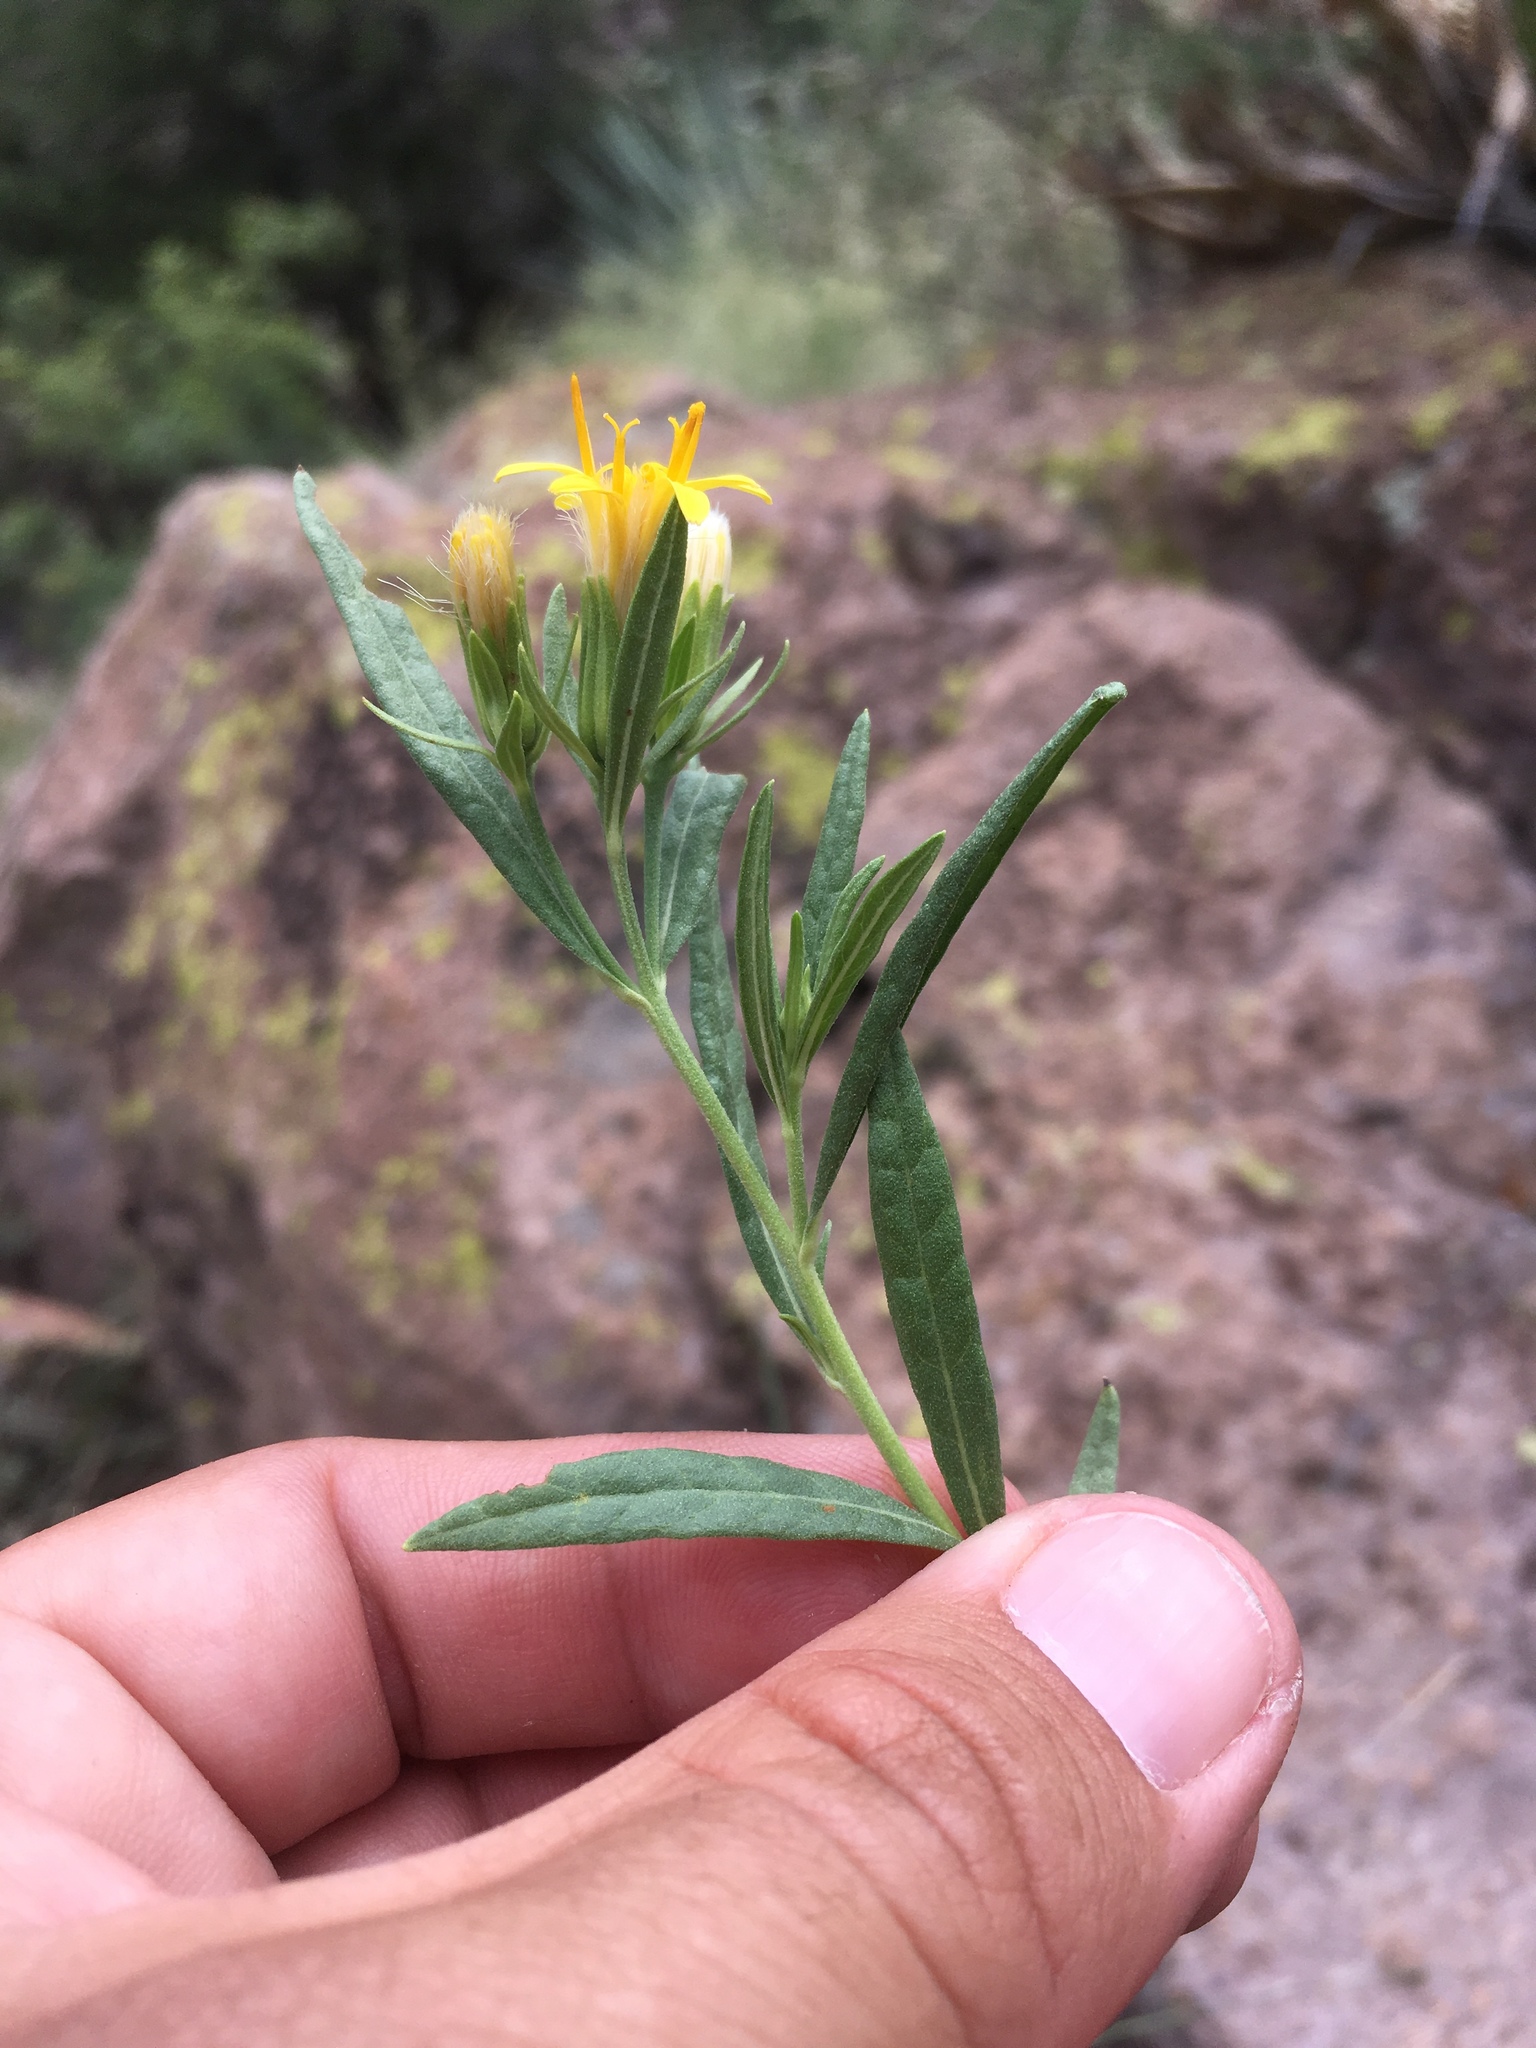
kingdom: Plantae
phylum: Tracheophyta
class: Magnoliopsida
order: Asterales
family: Asteraceae
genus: Trixis
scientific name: Trixis californica
